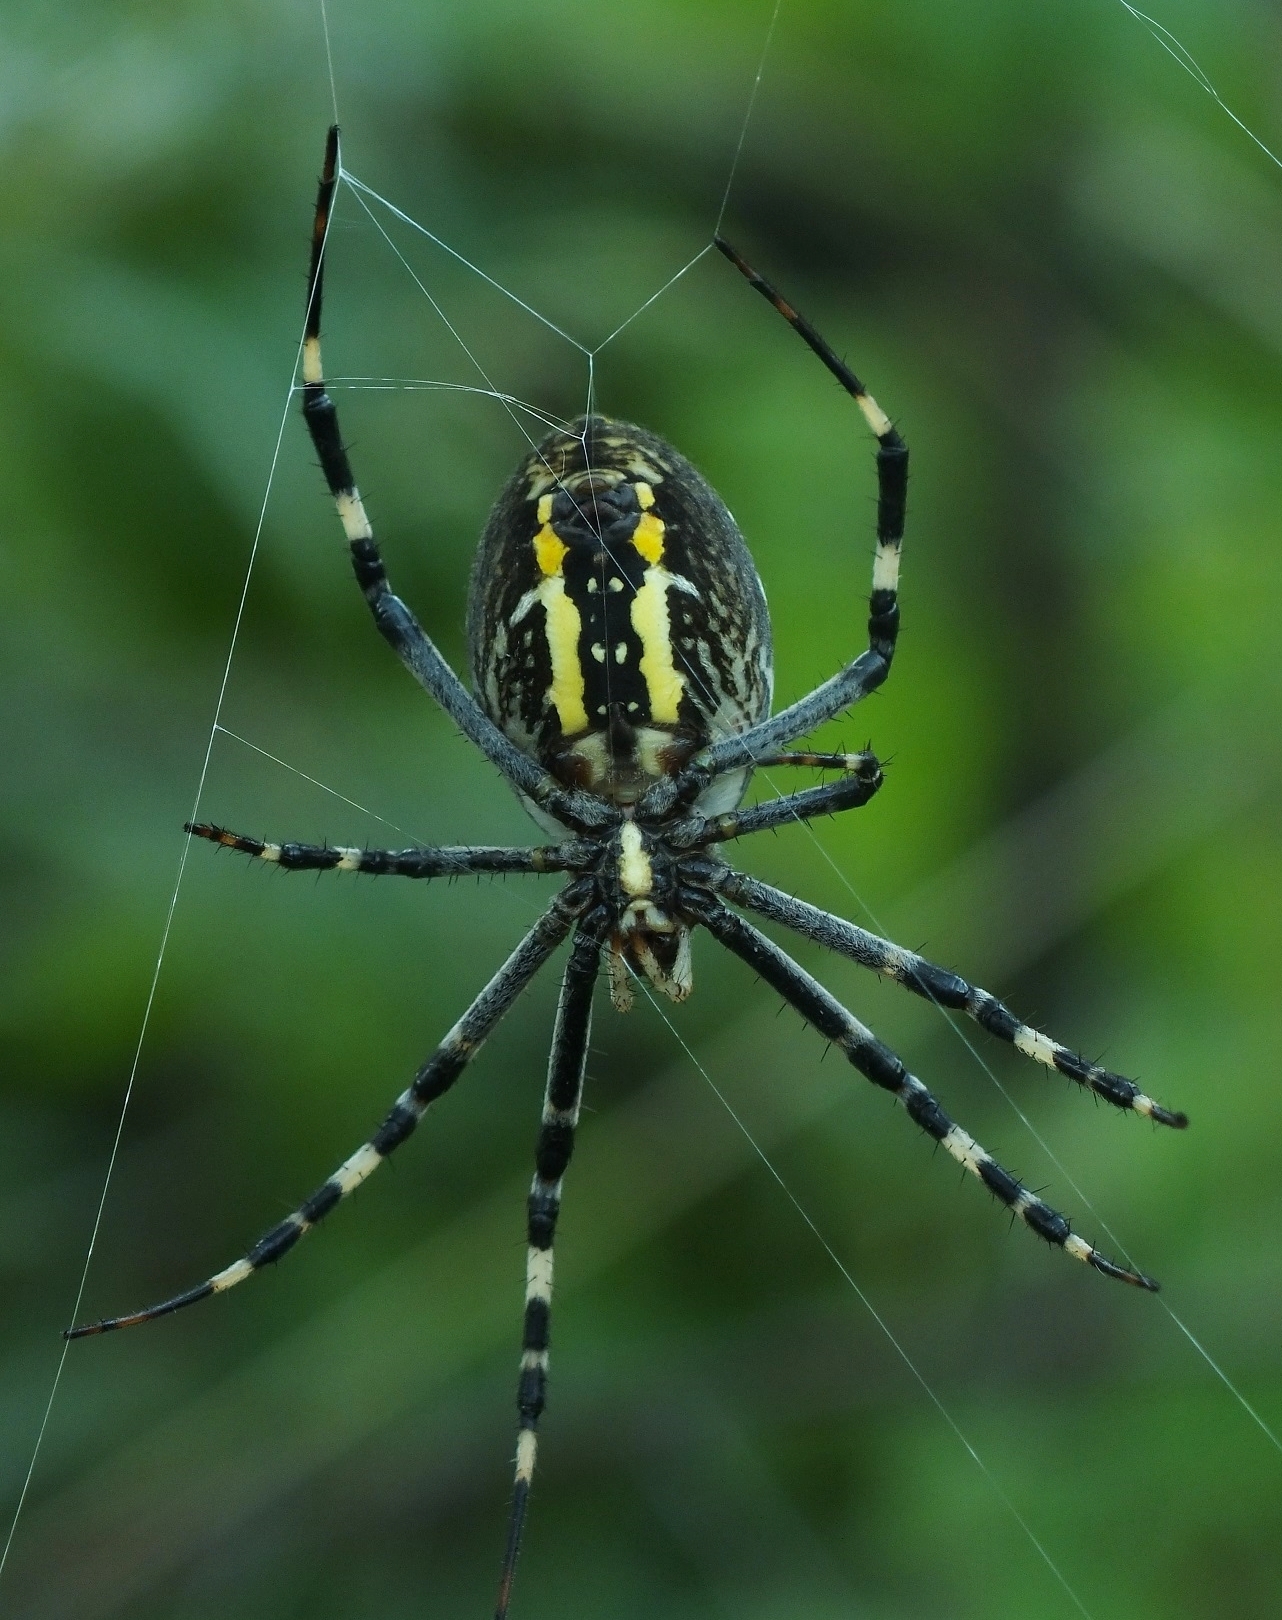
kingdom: Animalia
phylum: Arthropoda
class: Arachnida
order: Araneae
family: Araneidae
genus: Argiope
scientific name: Argiope bruennichi
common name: Wasp spider
